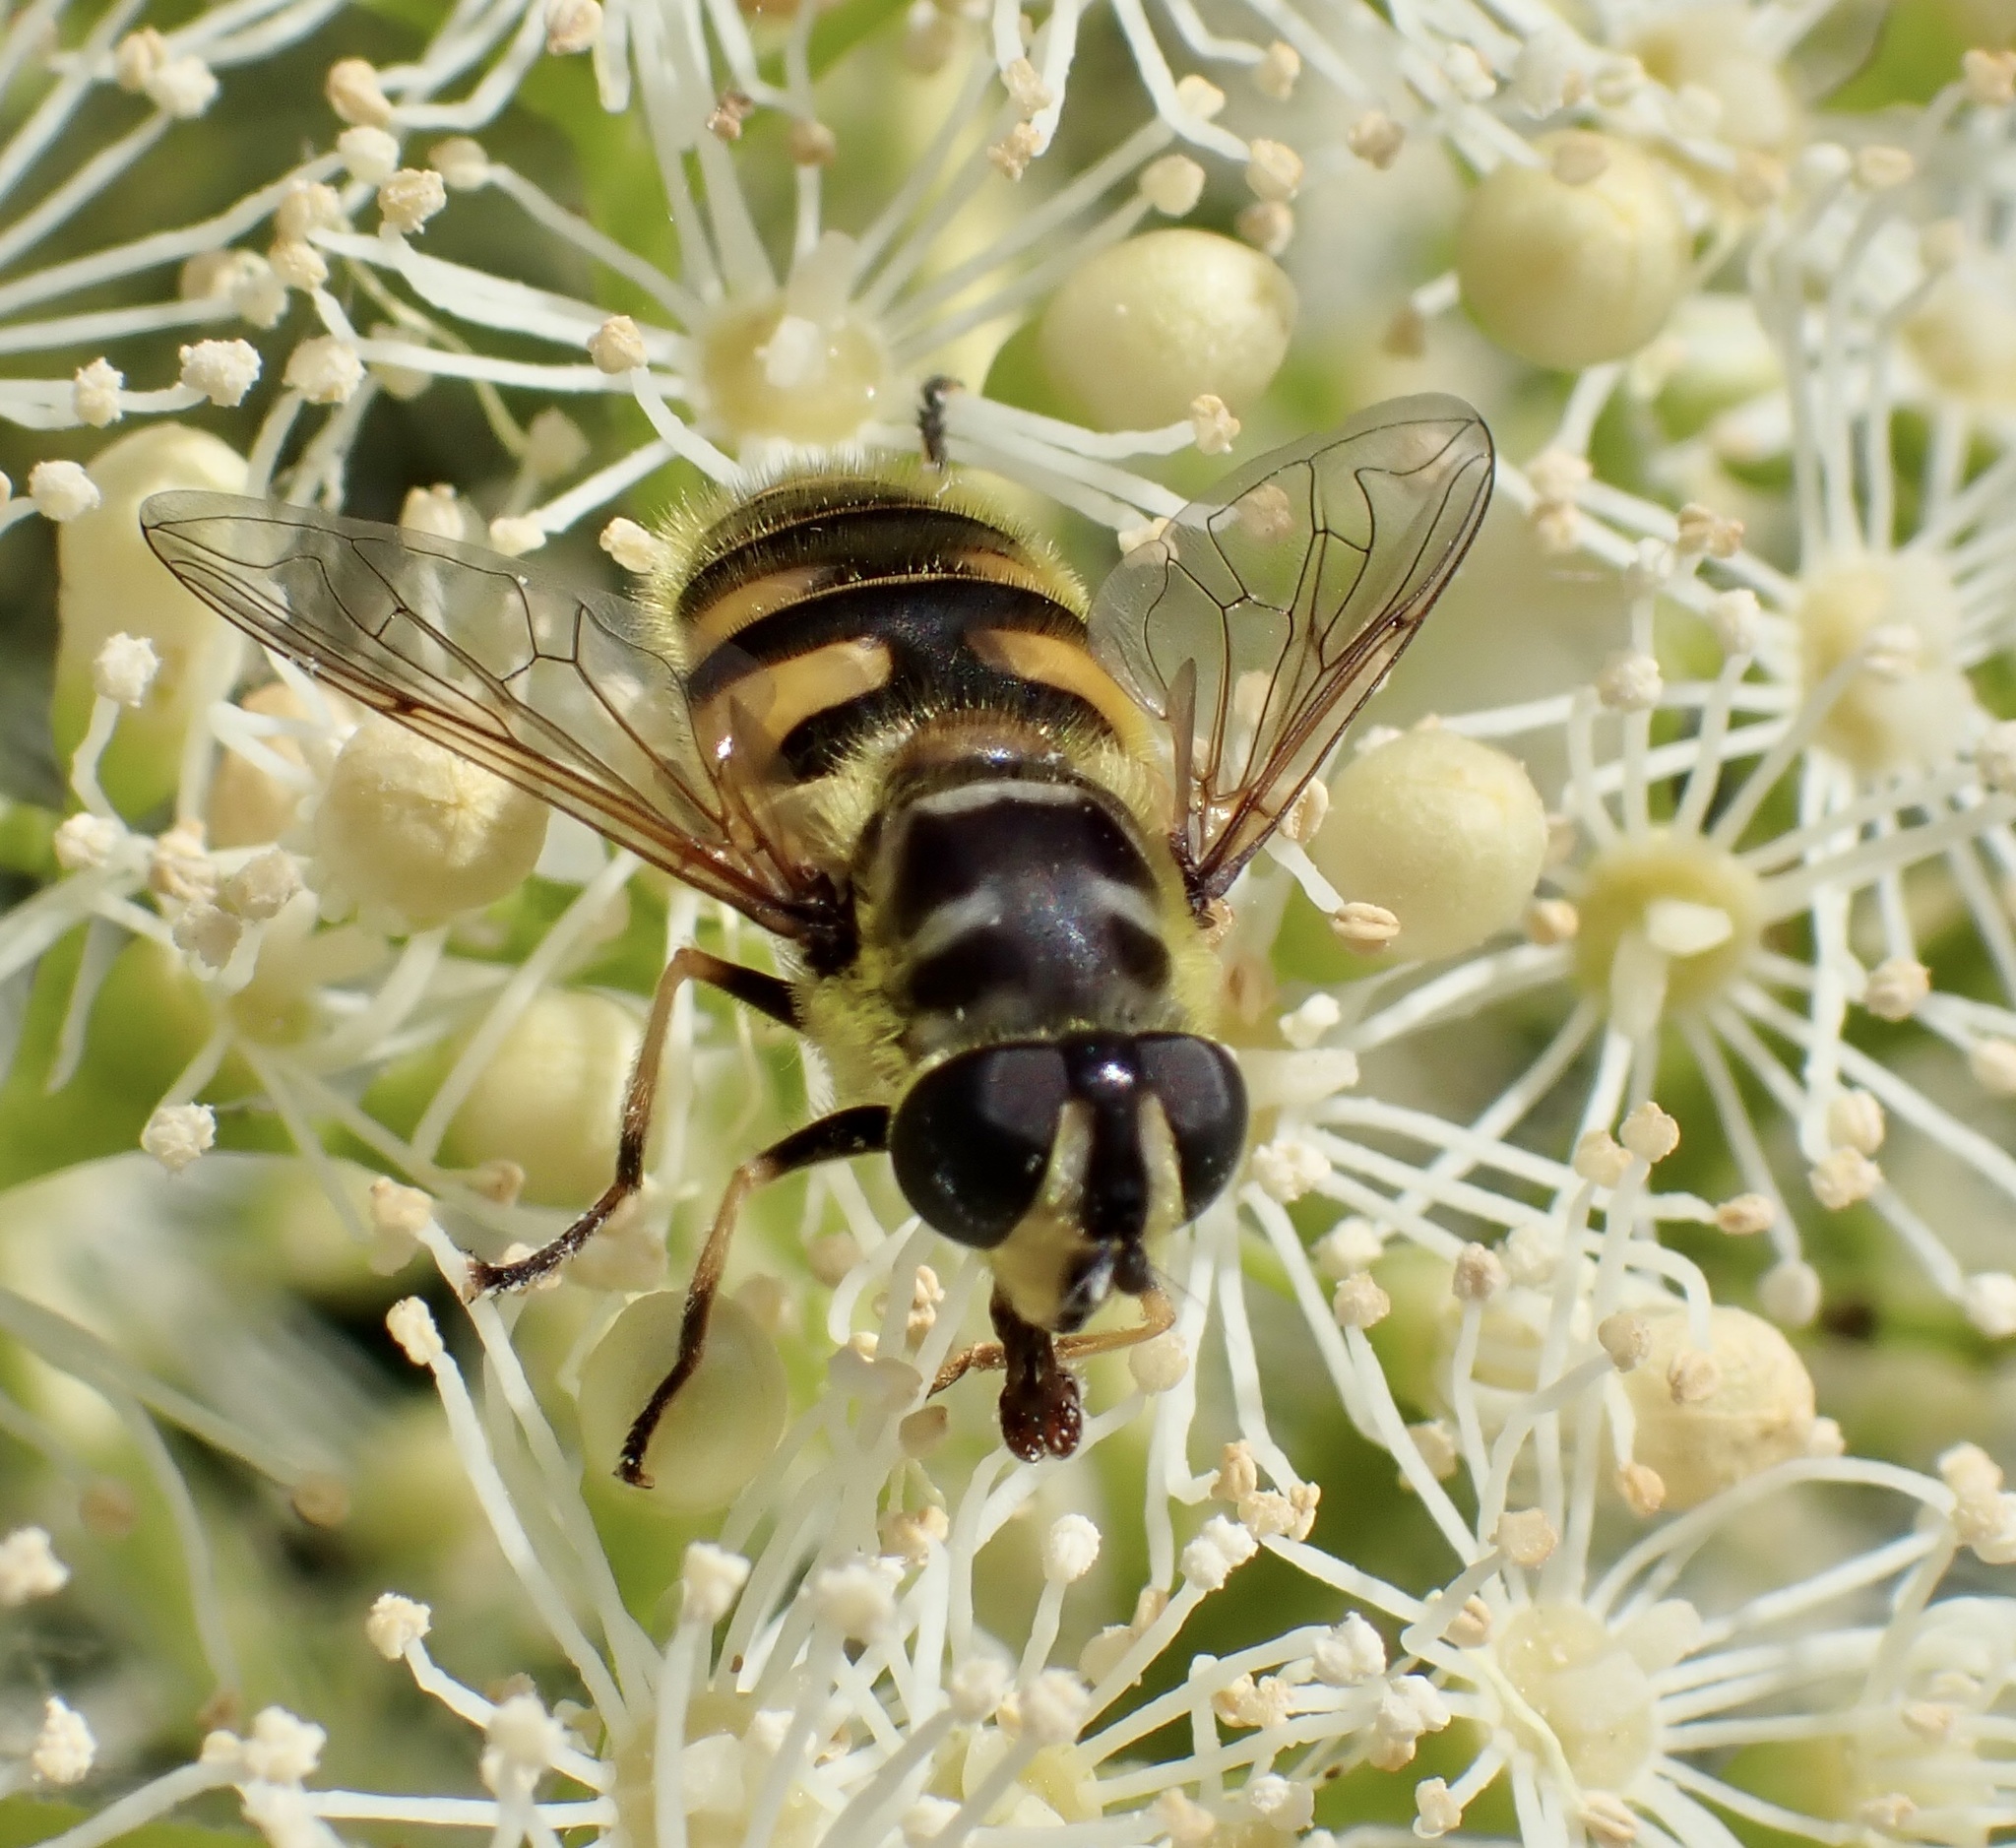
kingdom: Animalia
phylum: Arthropoda
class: Insecta
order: Diptera
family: Syrphidae
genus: Myathropa
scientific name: Myathropa florea
